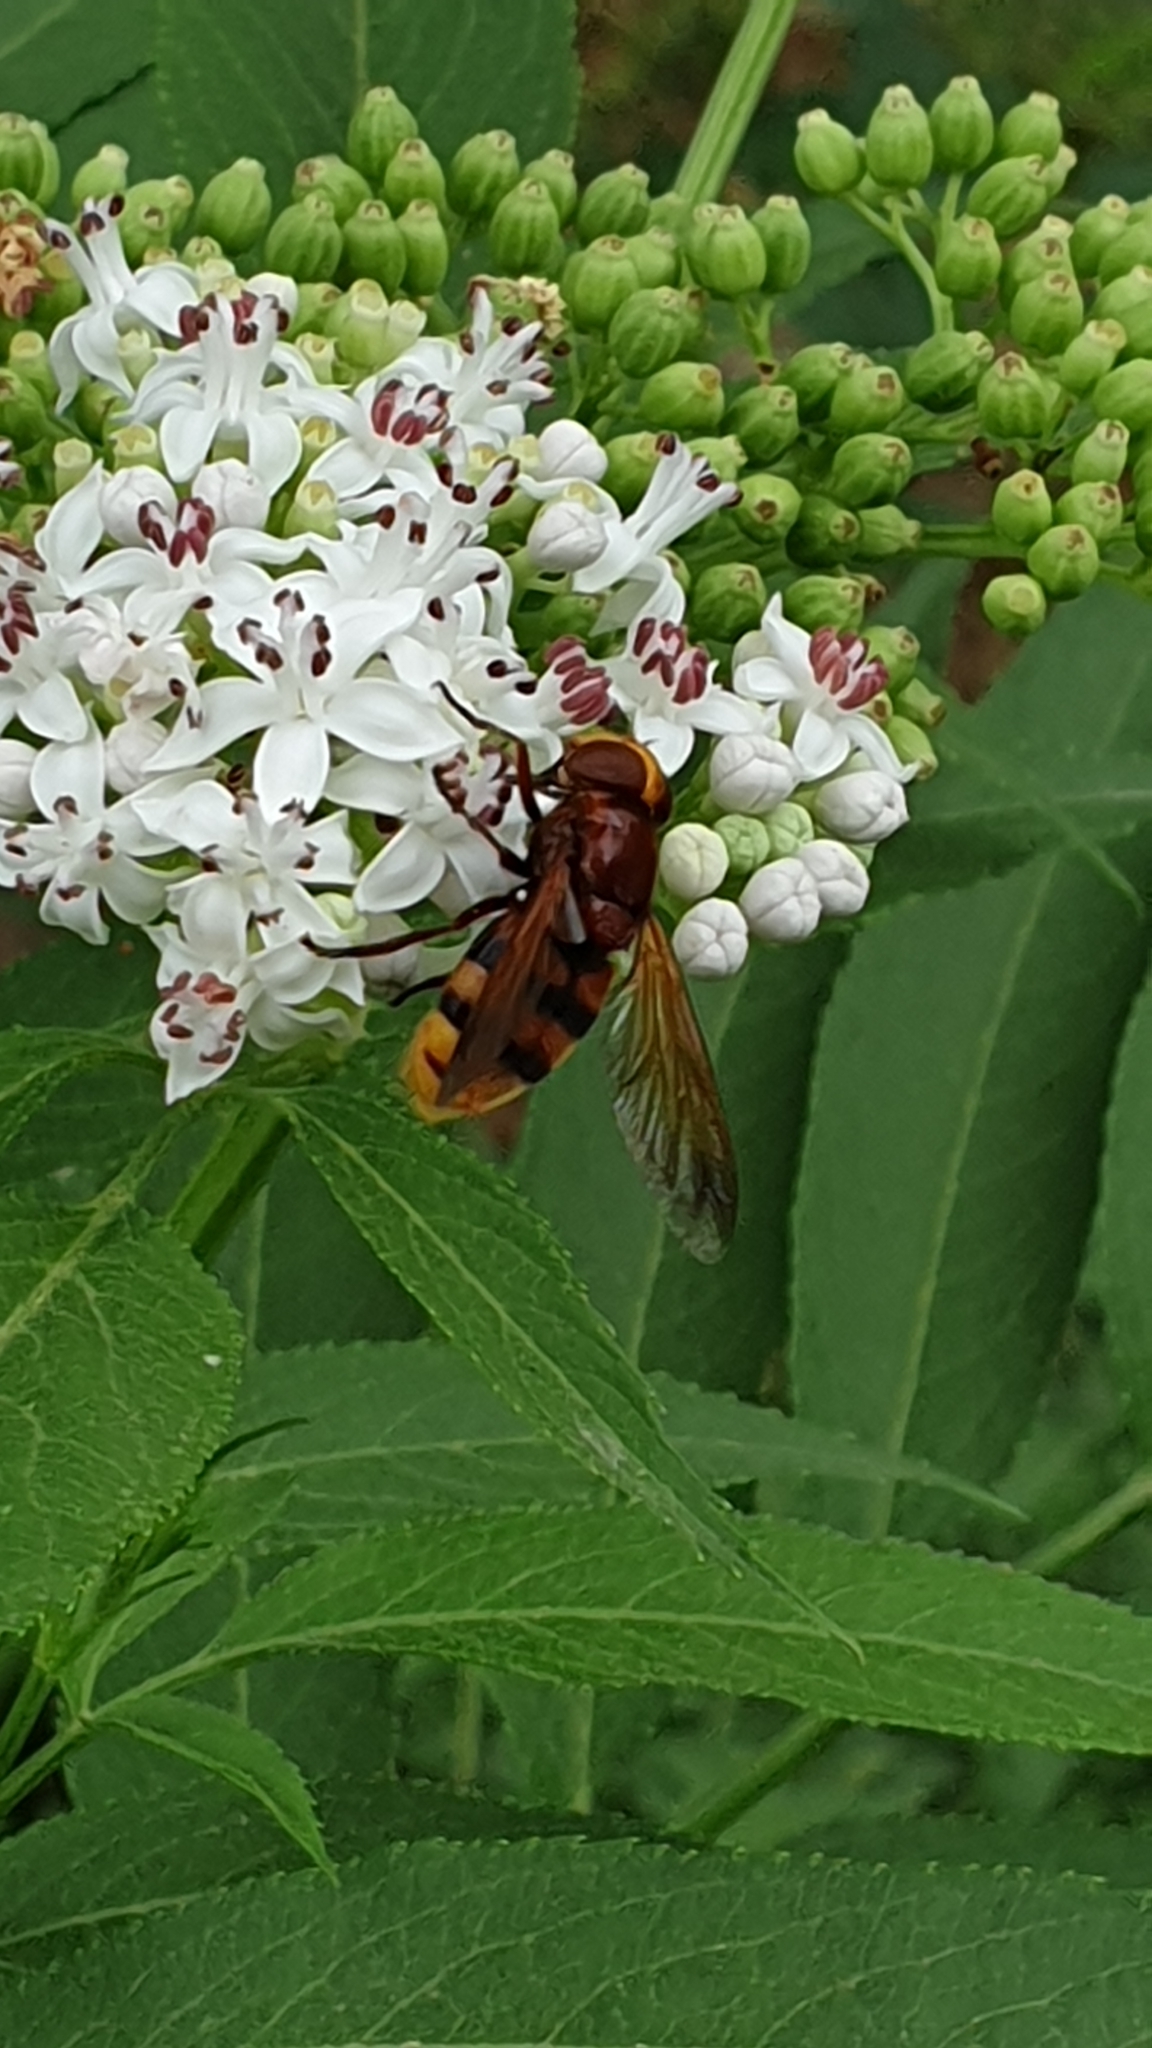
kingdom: Animalia
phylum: Arthropoda
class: Insecta
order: Diptera
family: Syrphidae
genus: Volucella
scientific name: Volucella zonaria
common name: Hornet hoverfly
